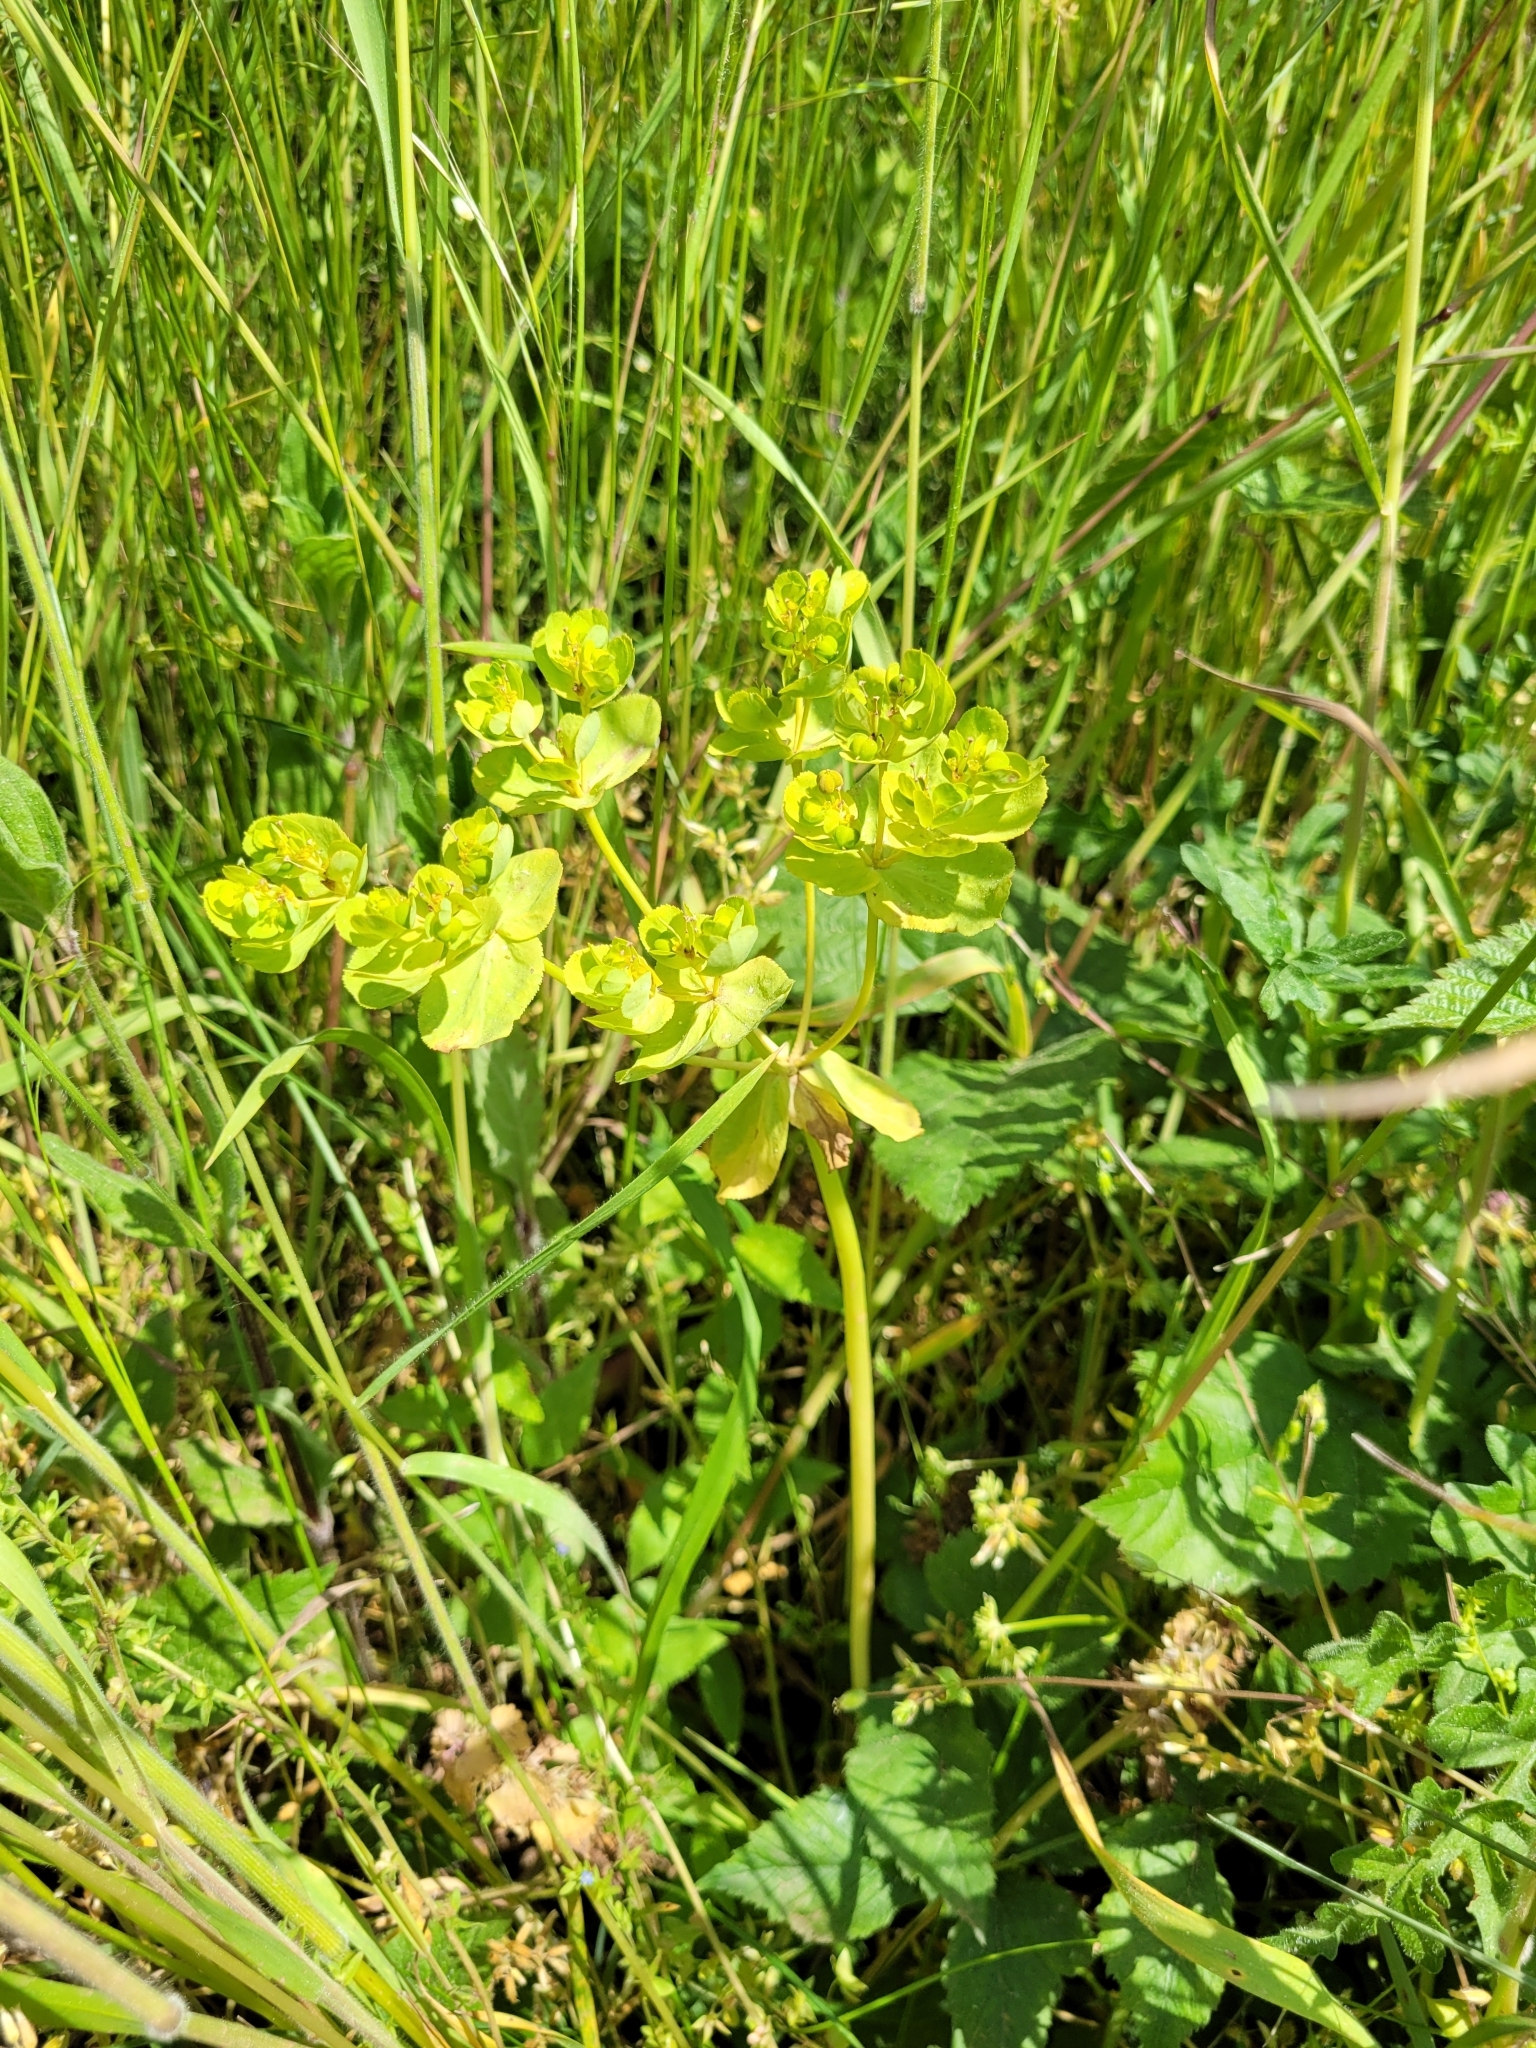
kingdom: Plantae
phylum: Tracheophyta
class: Magnoliopsida
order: Malpighiales
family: Euphorbiaceae
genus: Euphorbia
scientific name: Euphorbia helioscopia
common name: Sun spurge
